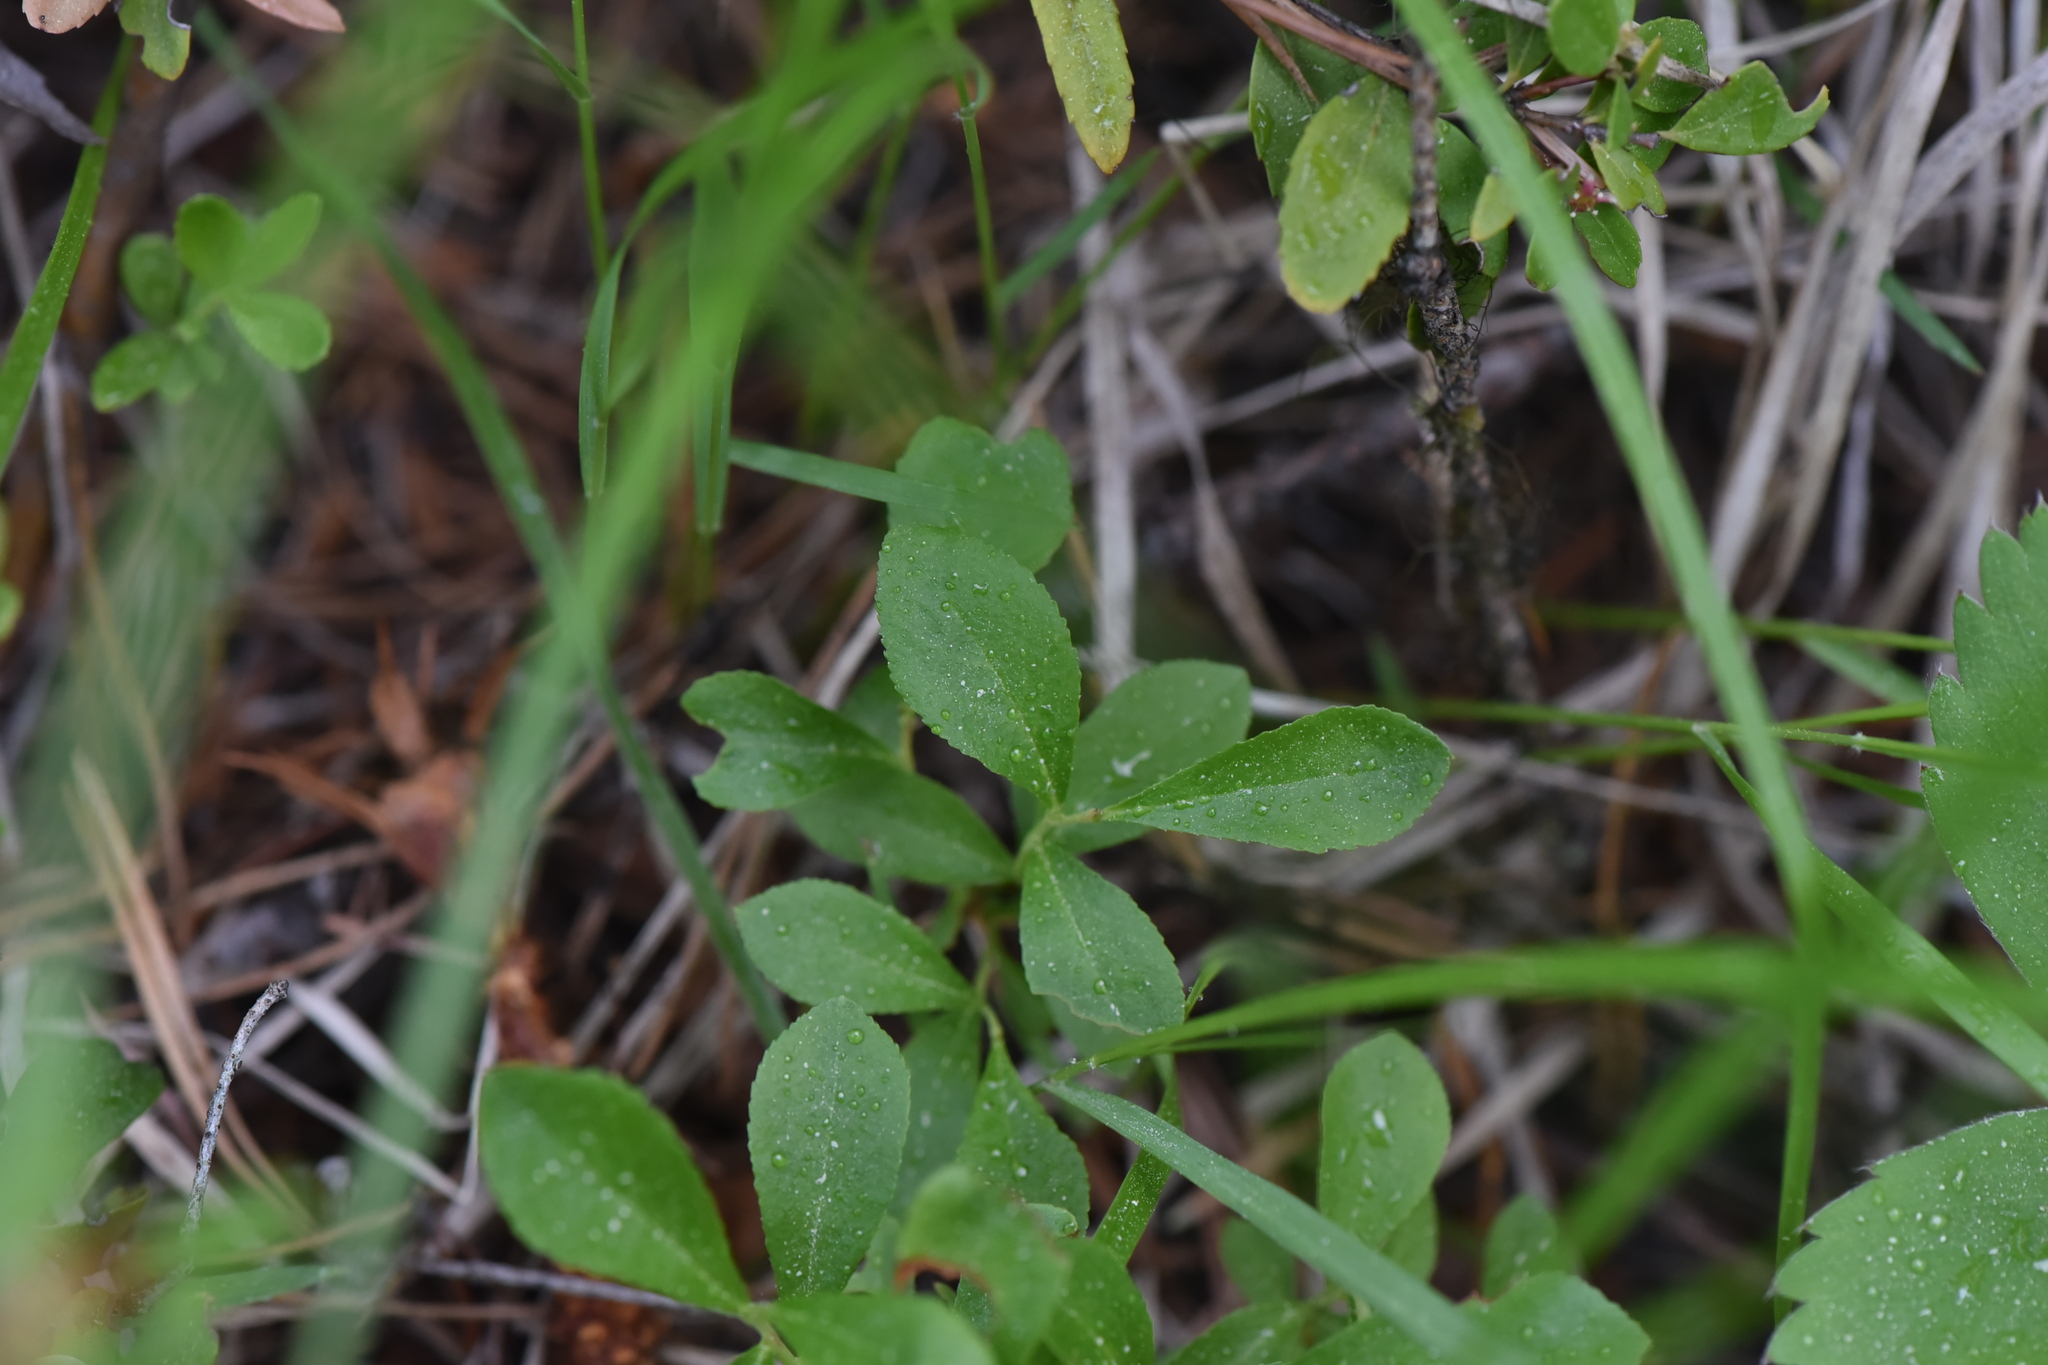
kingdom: Plantae
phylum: Tracheophyta
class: Magnoliopsida
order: Ericales
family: Ericaceae
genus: Vaccinium
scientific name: Vaccinium cespitosum
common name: Dwarf bilberry
